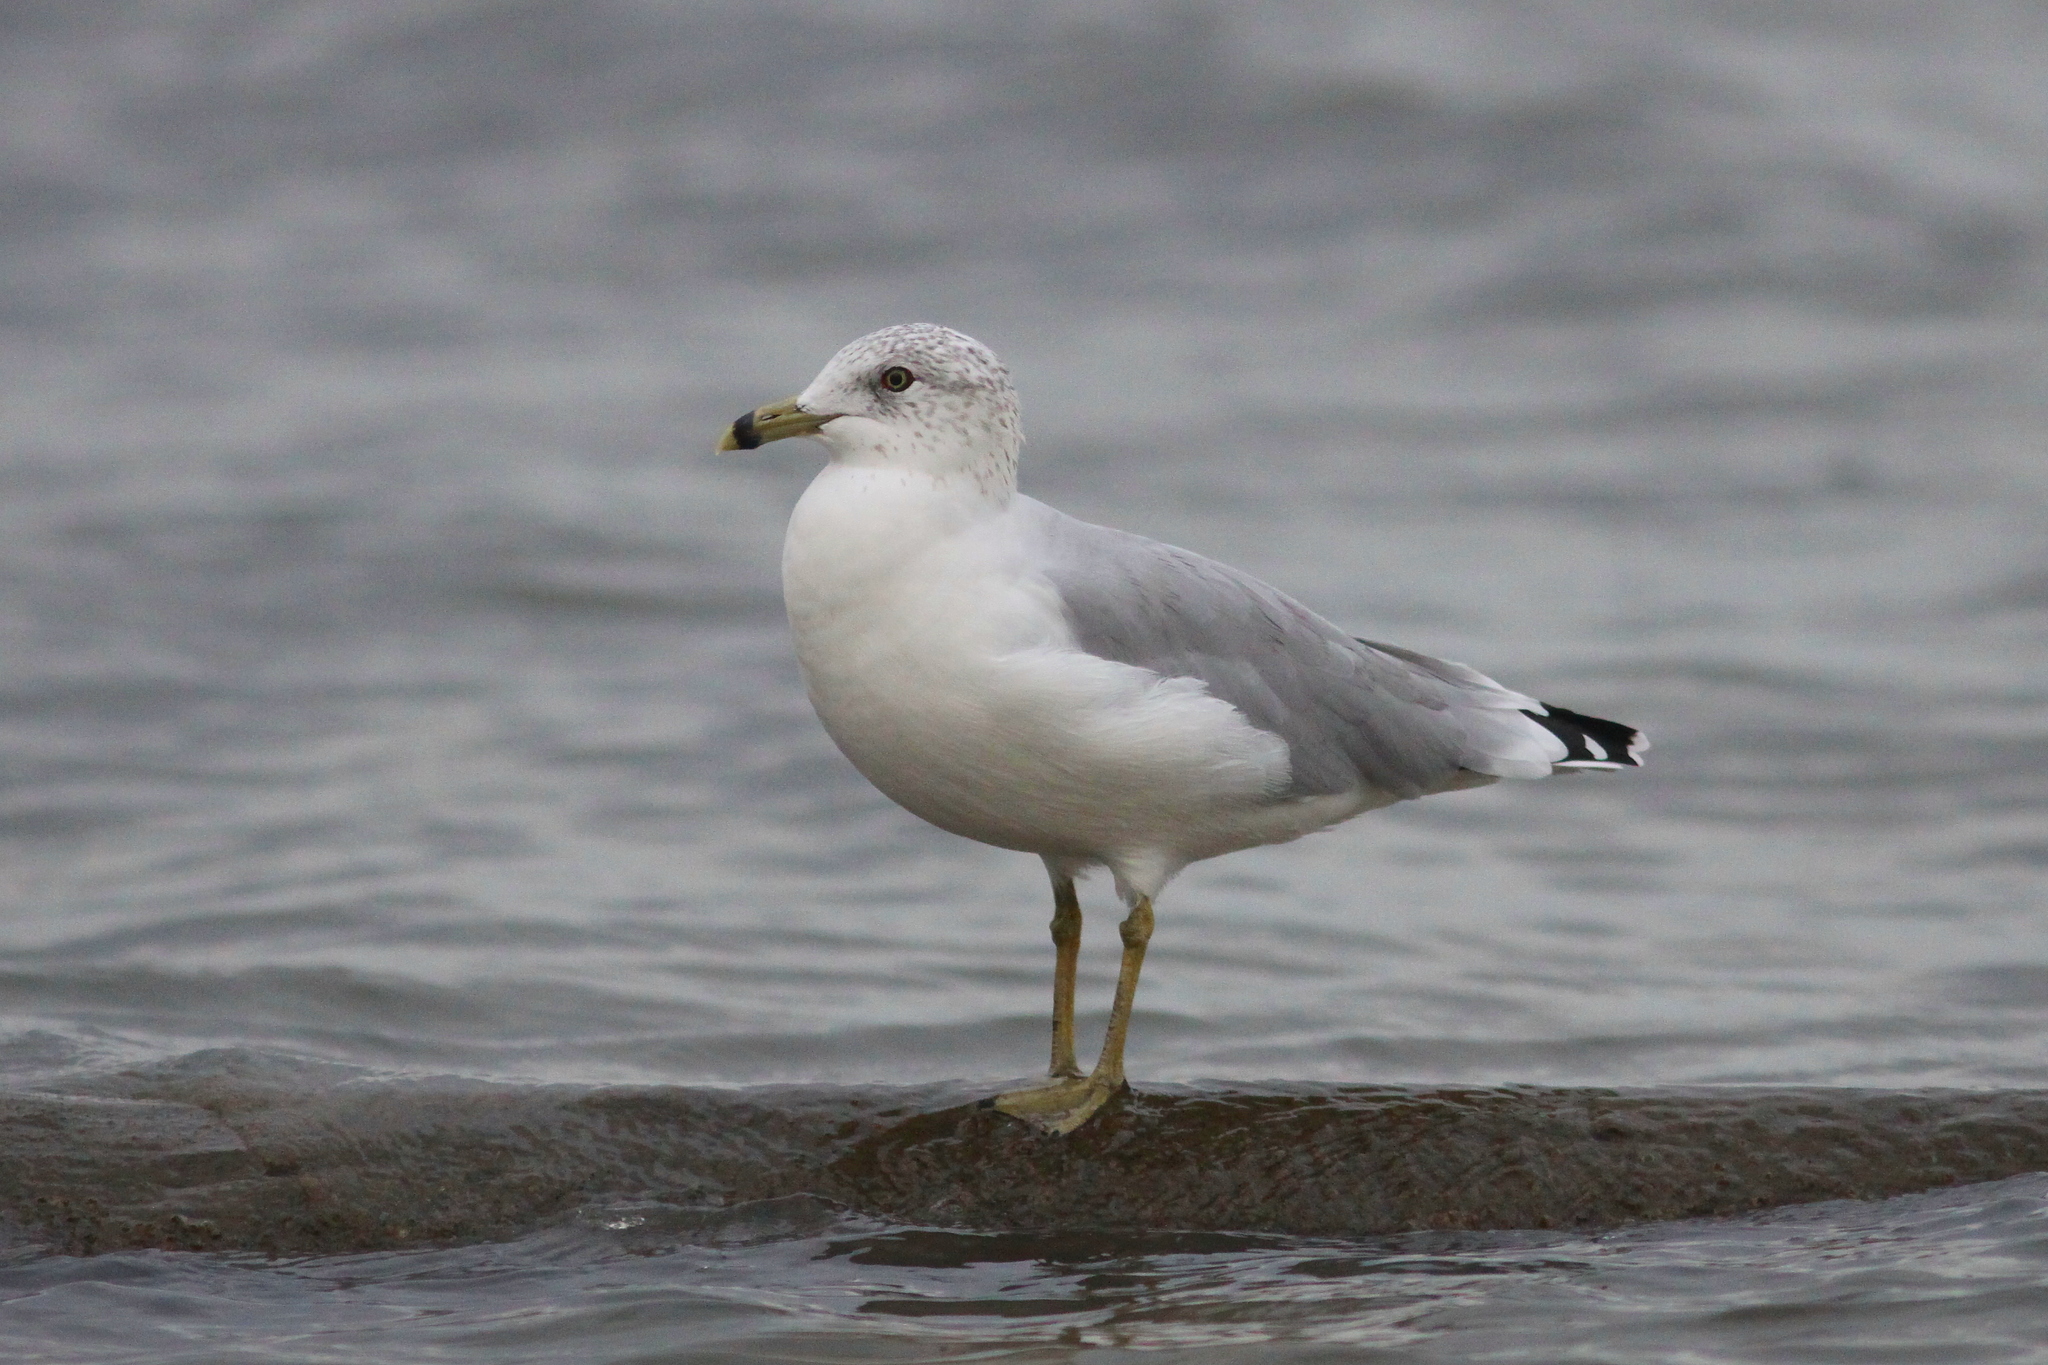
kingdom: Animalia
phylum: Chordata
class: Aves
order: Charadriiformes
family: Laridae
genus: Larus
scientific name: Larus delawarensis
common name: Ring-billed gull
